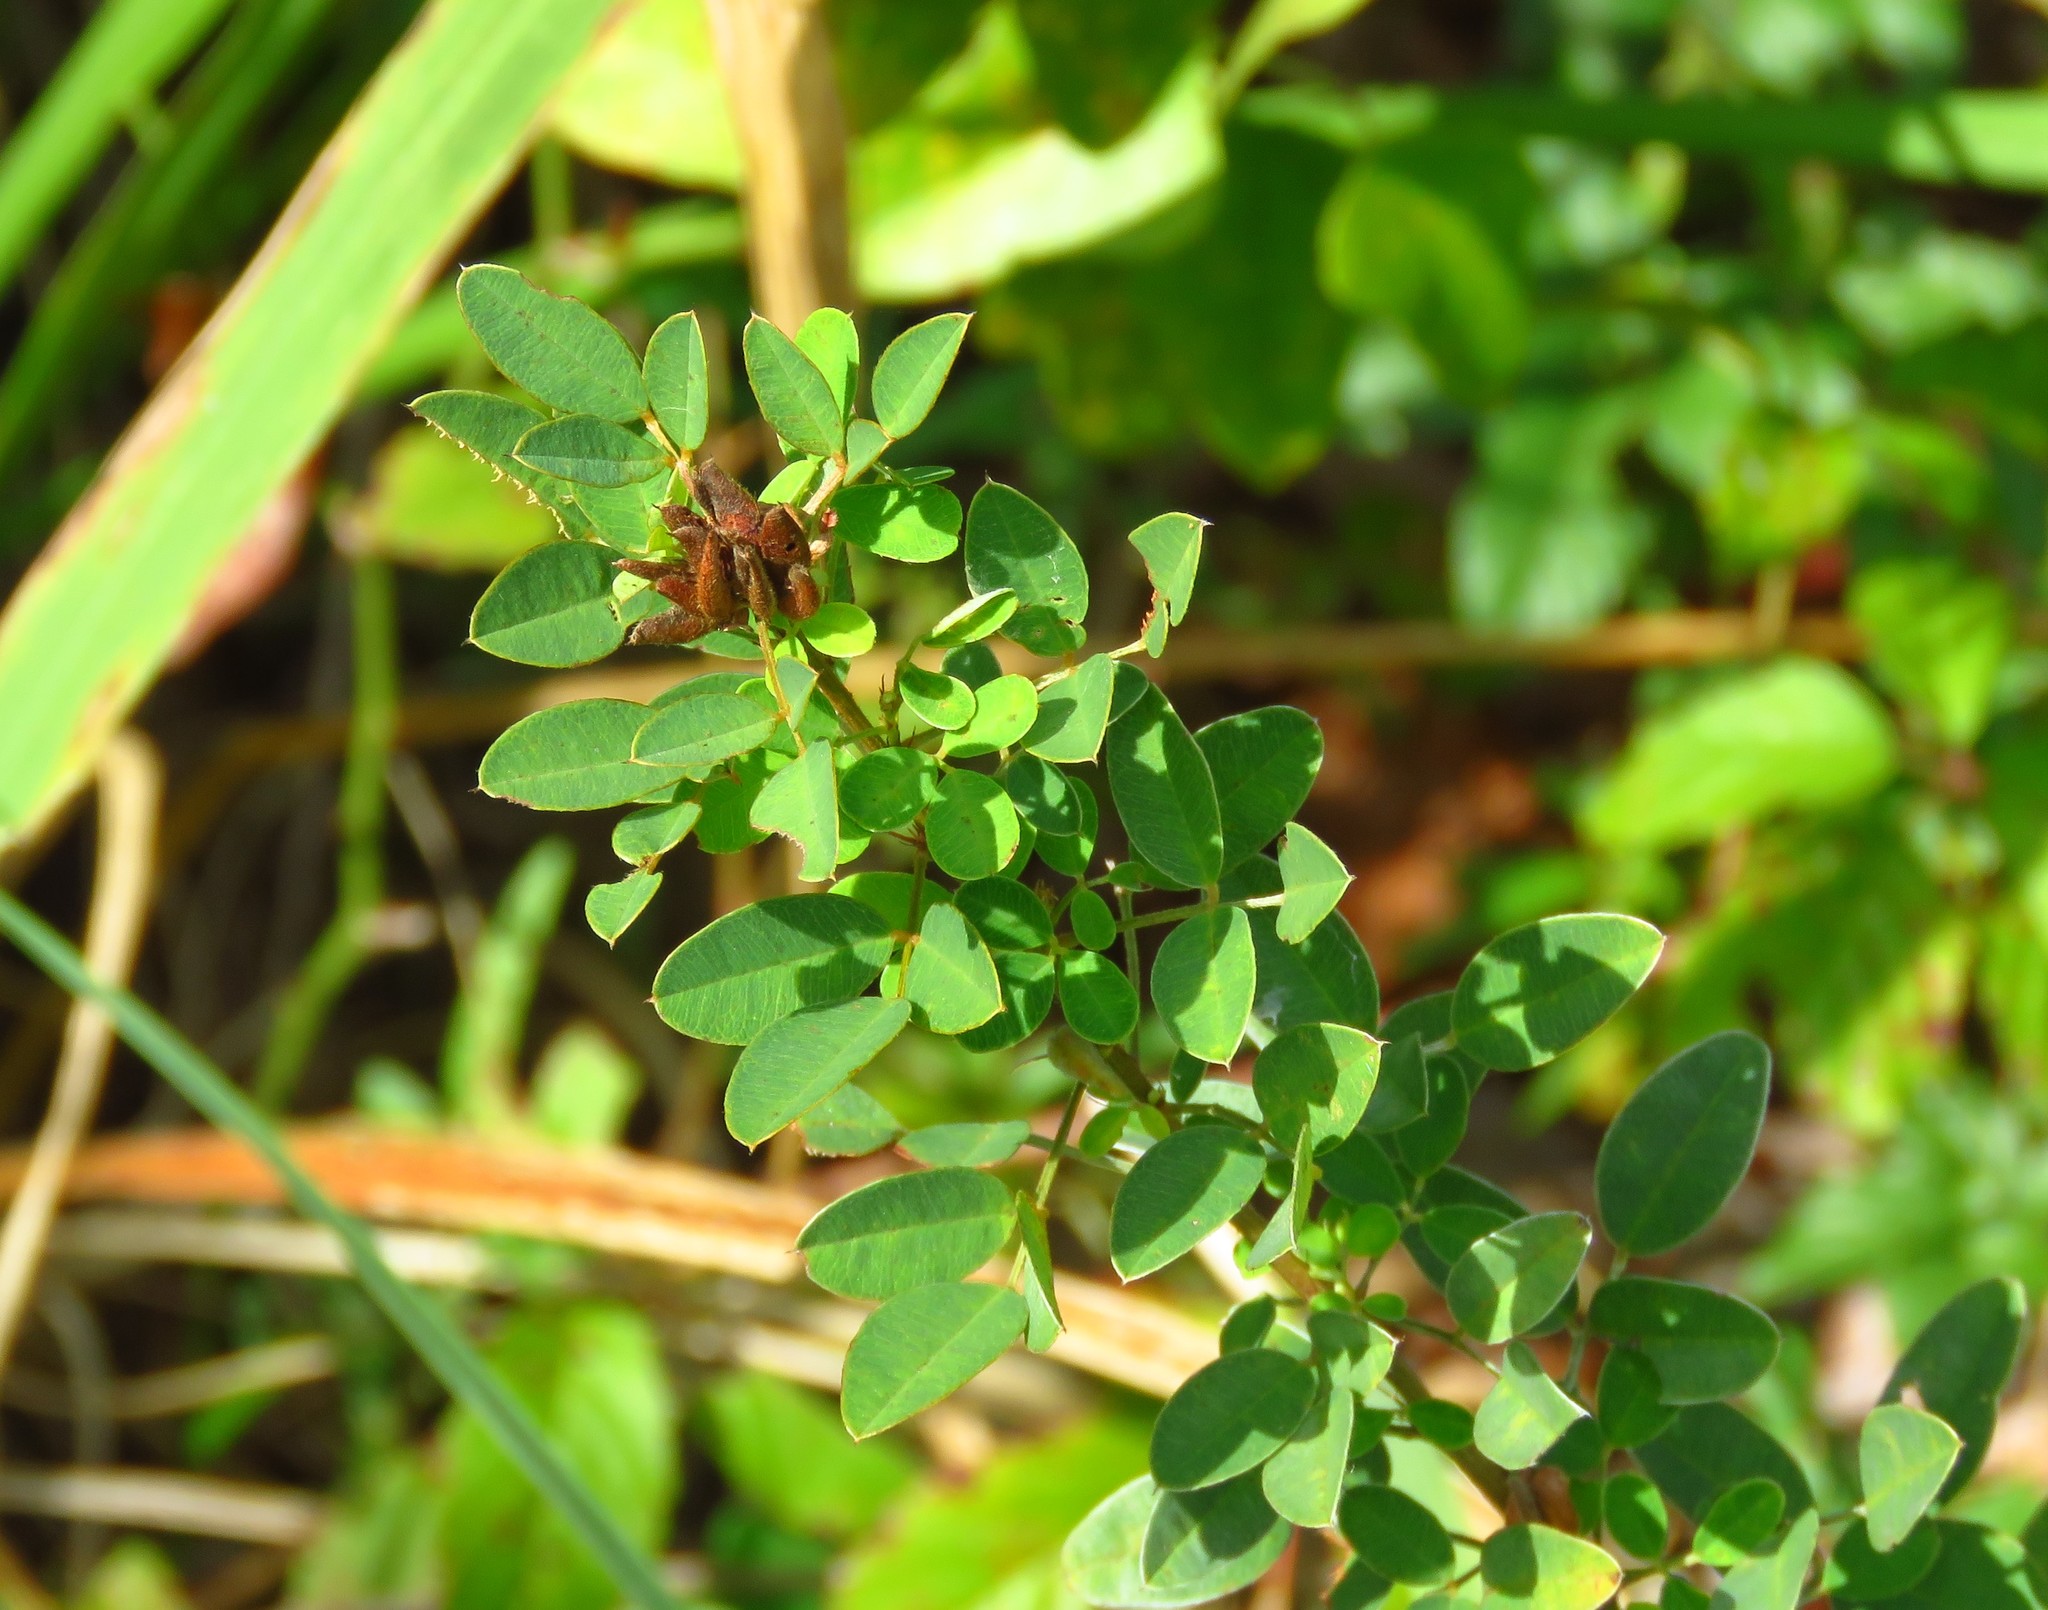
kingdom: Plantae
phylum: Tracheophyta
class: Magnoliopsida
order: Fabales
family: Fabaceae
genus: Lespedeza
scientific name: Lespedeza stuevei
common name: Tall bush-clover
